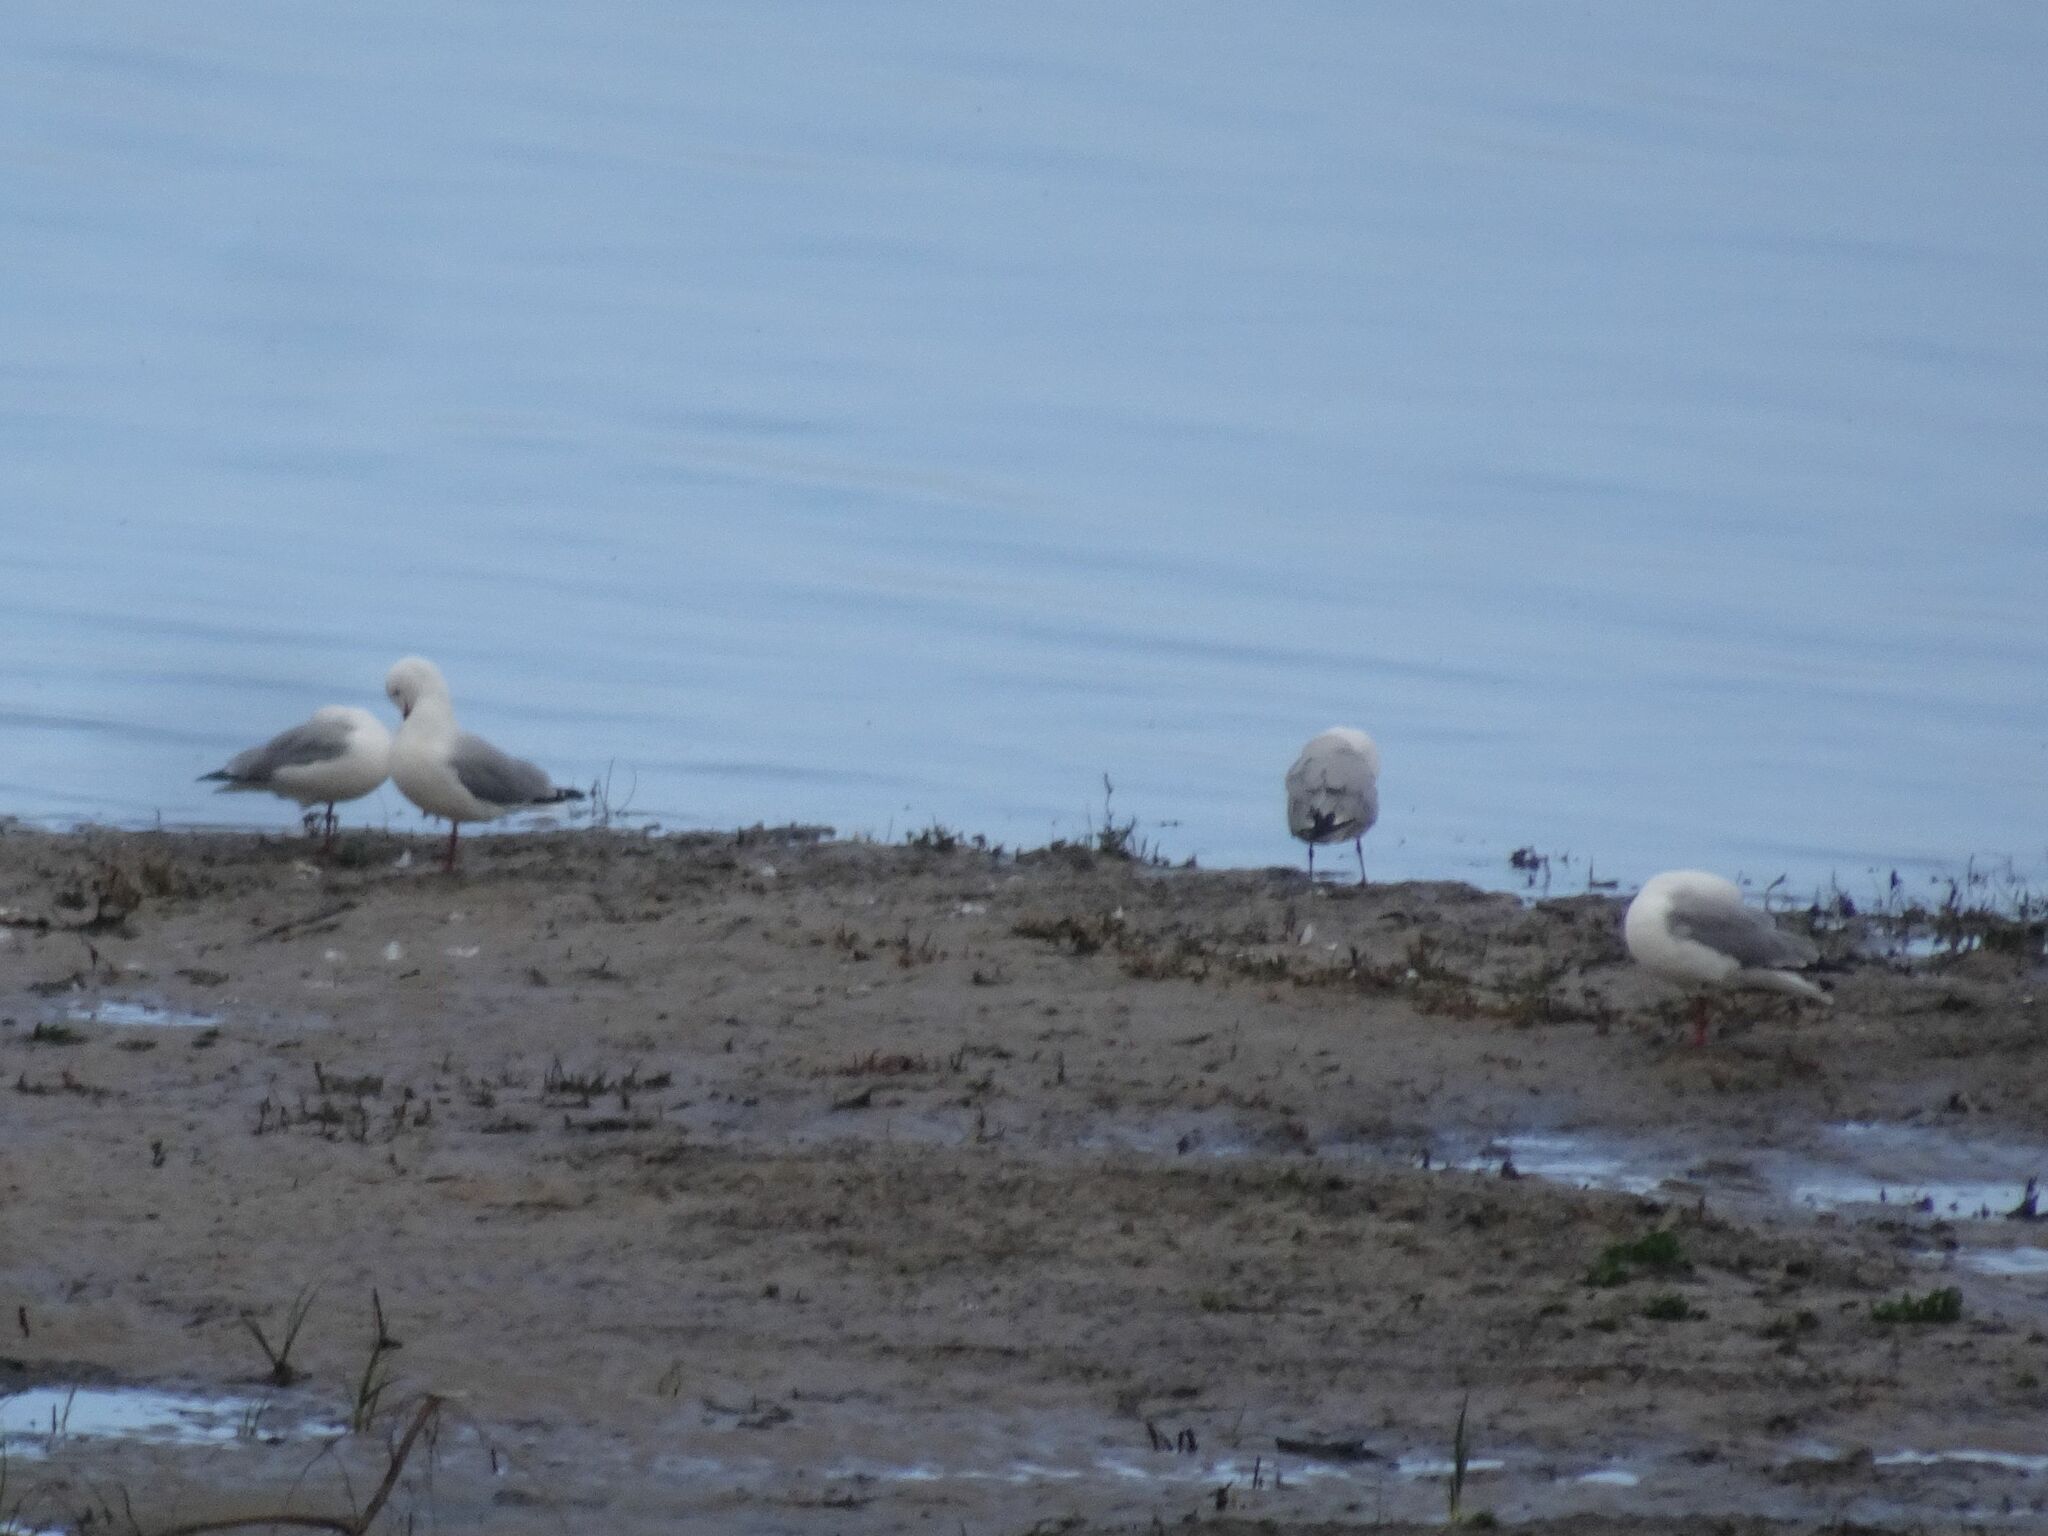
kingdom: Animalia
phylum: Chordata
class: Aves
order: Charadriiformes
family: Laridae
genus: Chroicocephalus
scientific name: Chroicocephalus hartlaubii
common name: Hartlaub's gull
